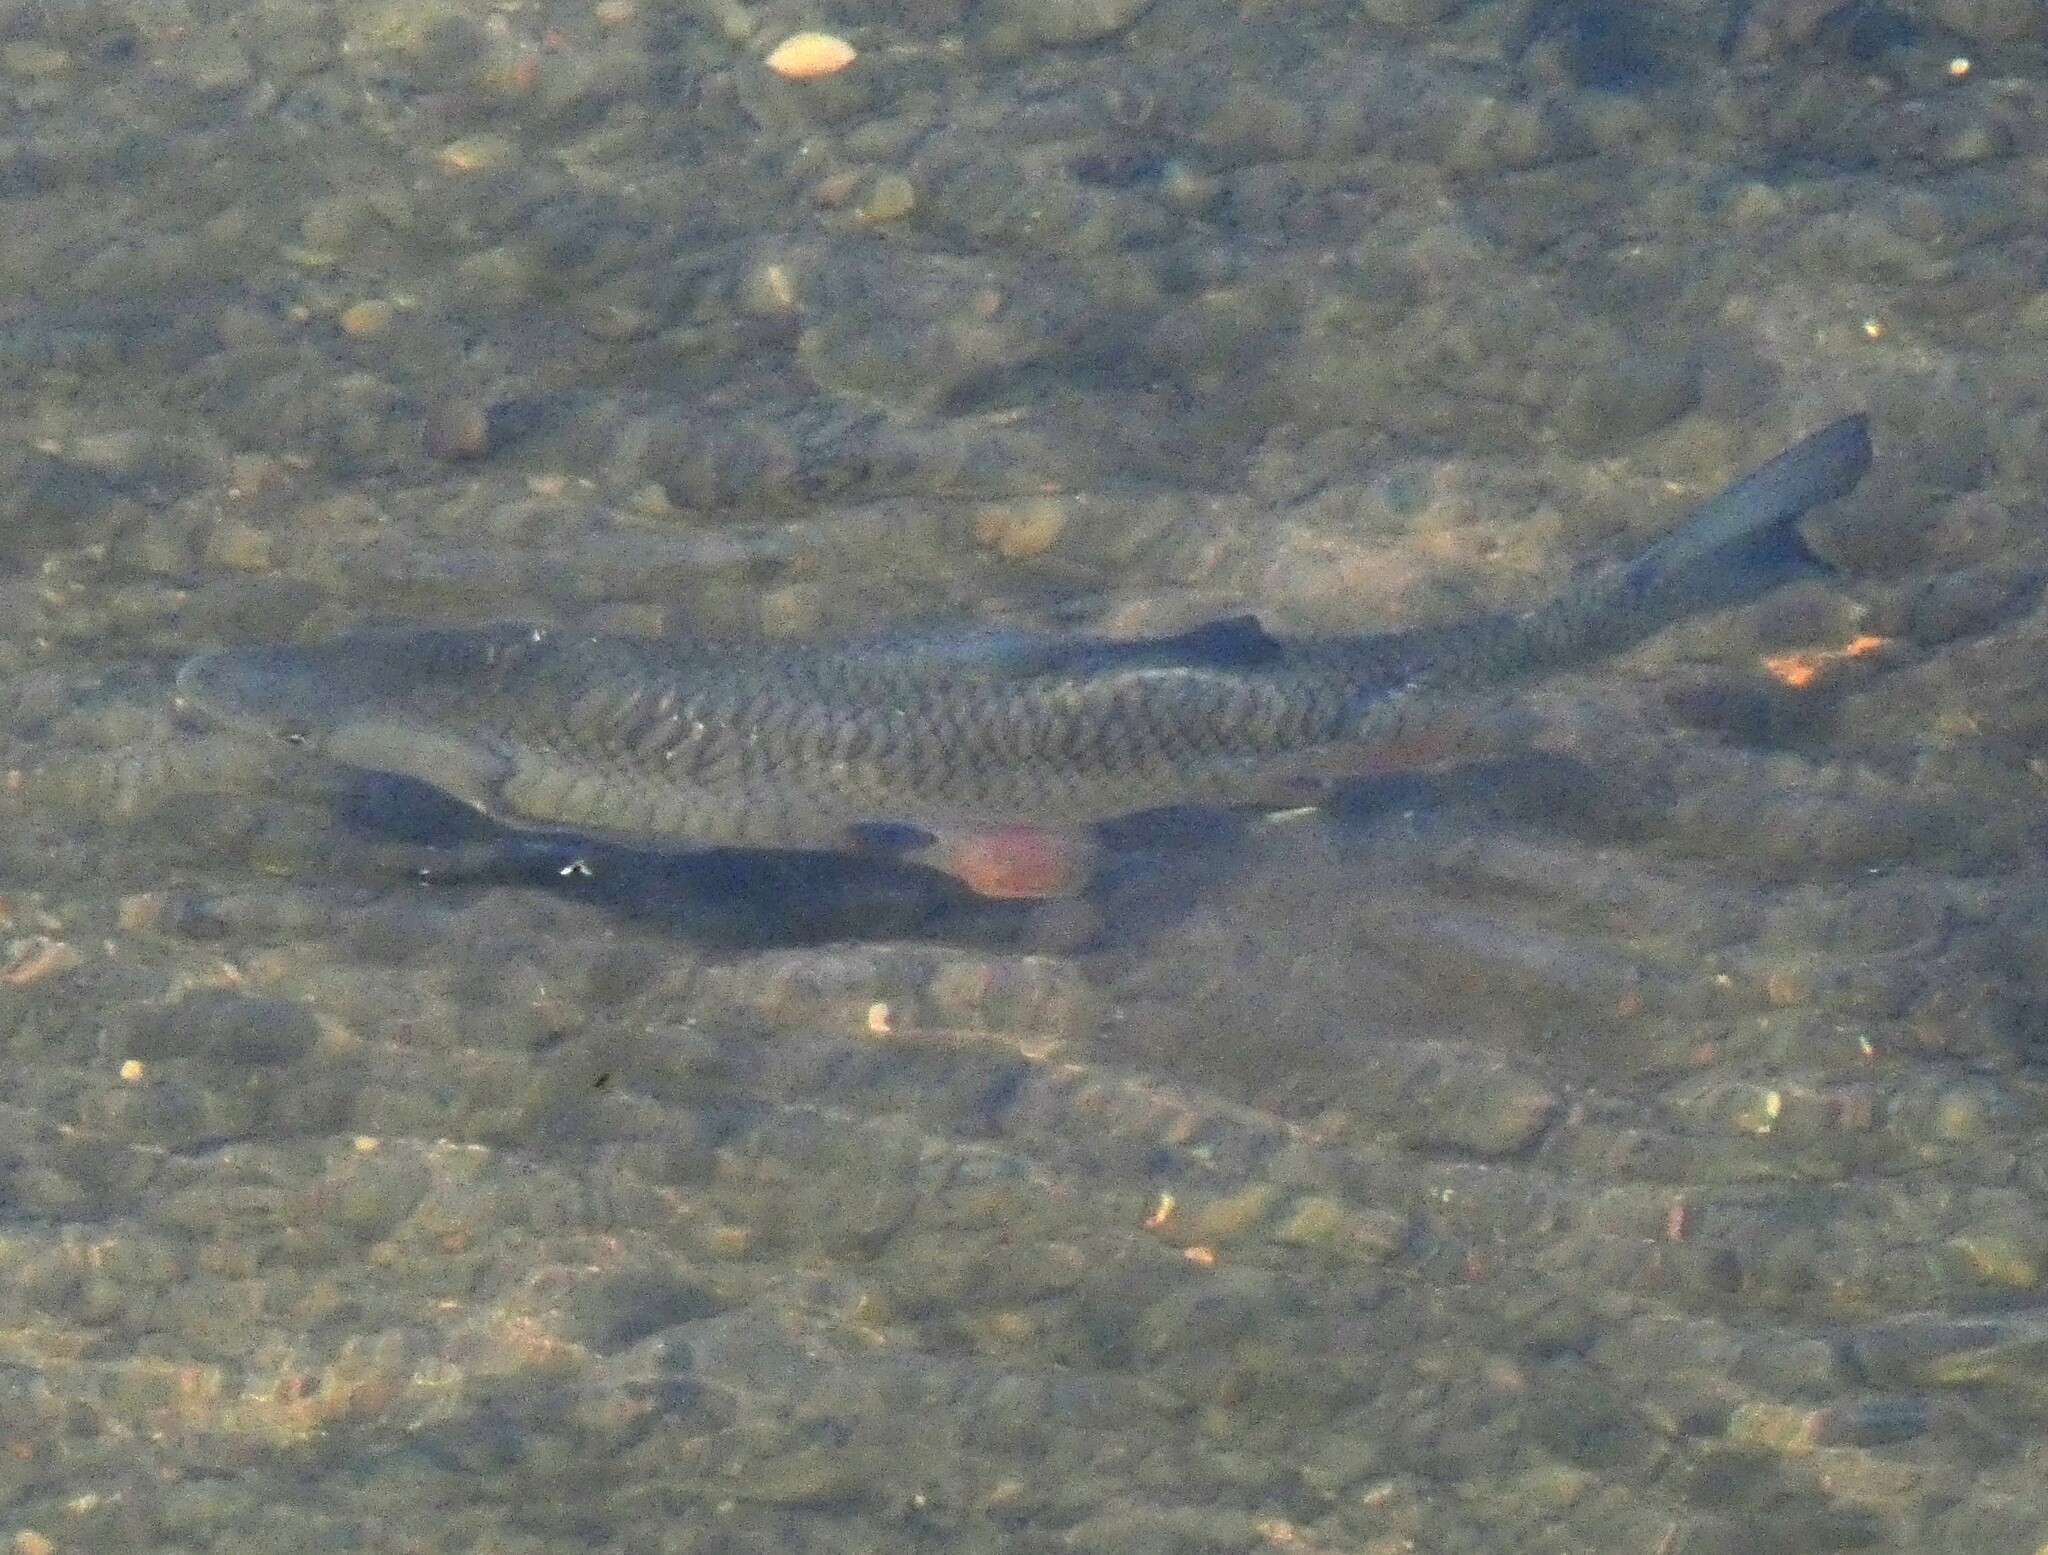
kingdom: Animalia
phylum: Chordata
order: Cypriniformes
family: Cyprinidae
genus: Squalius
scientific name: Squalius cephalus
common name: Chub
